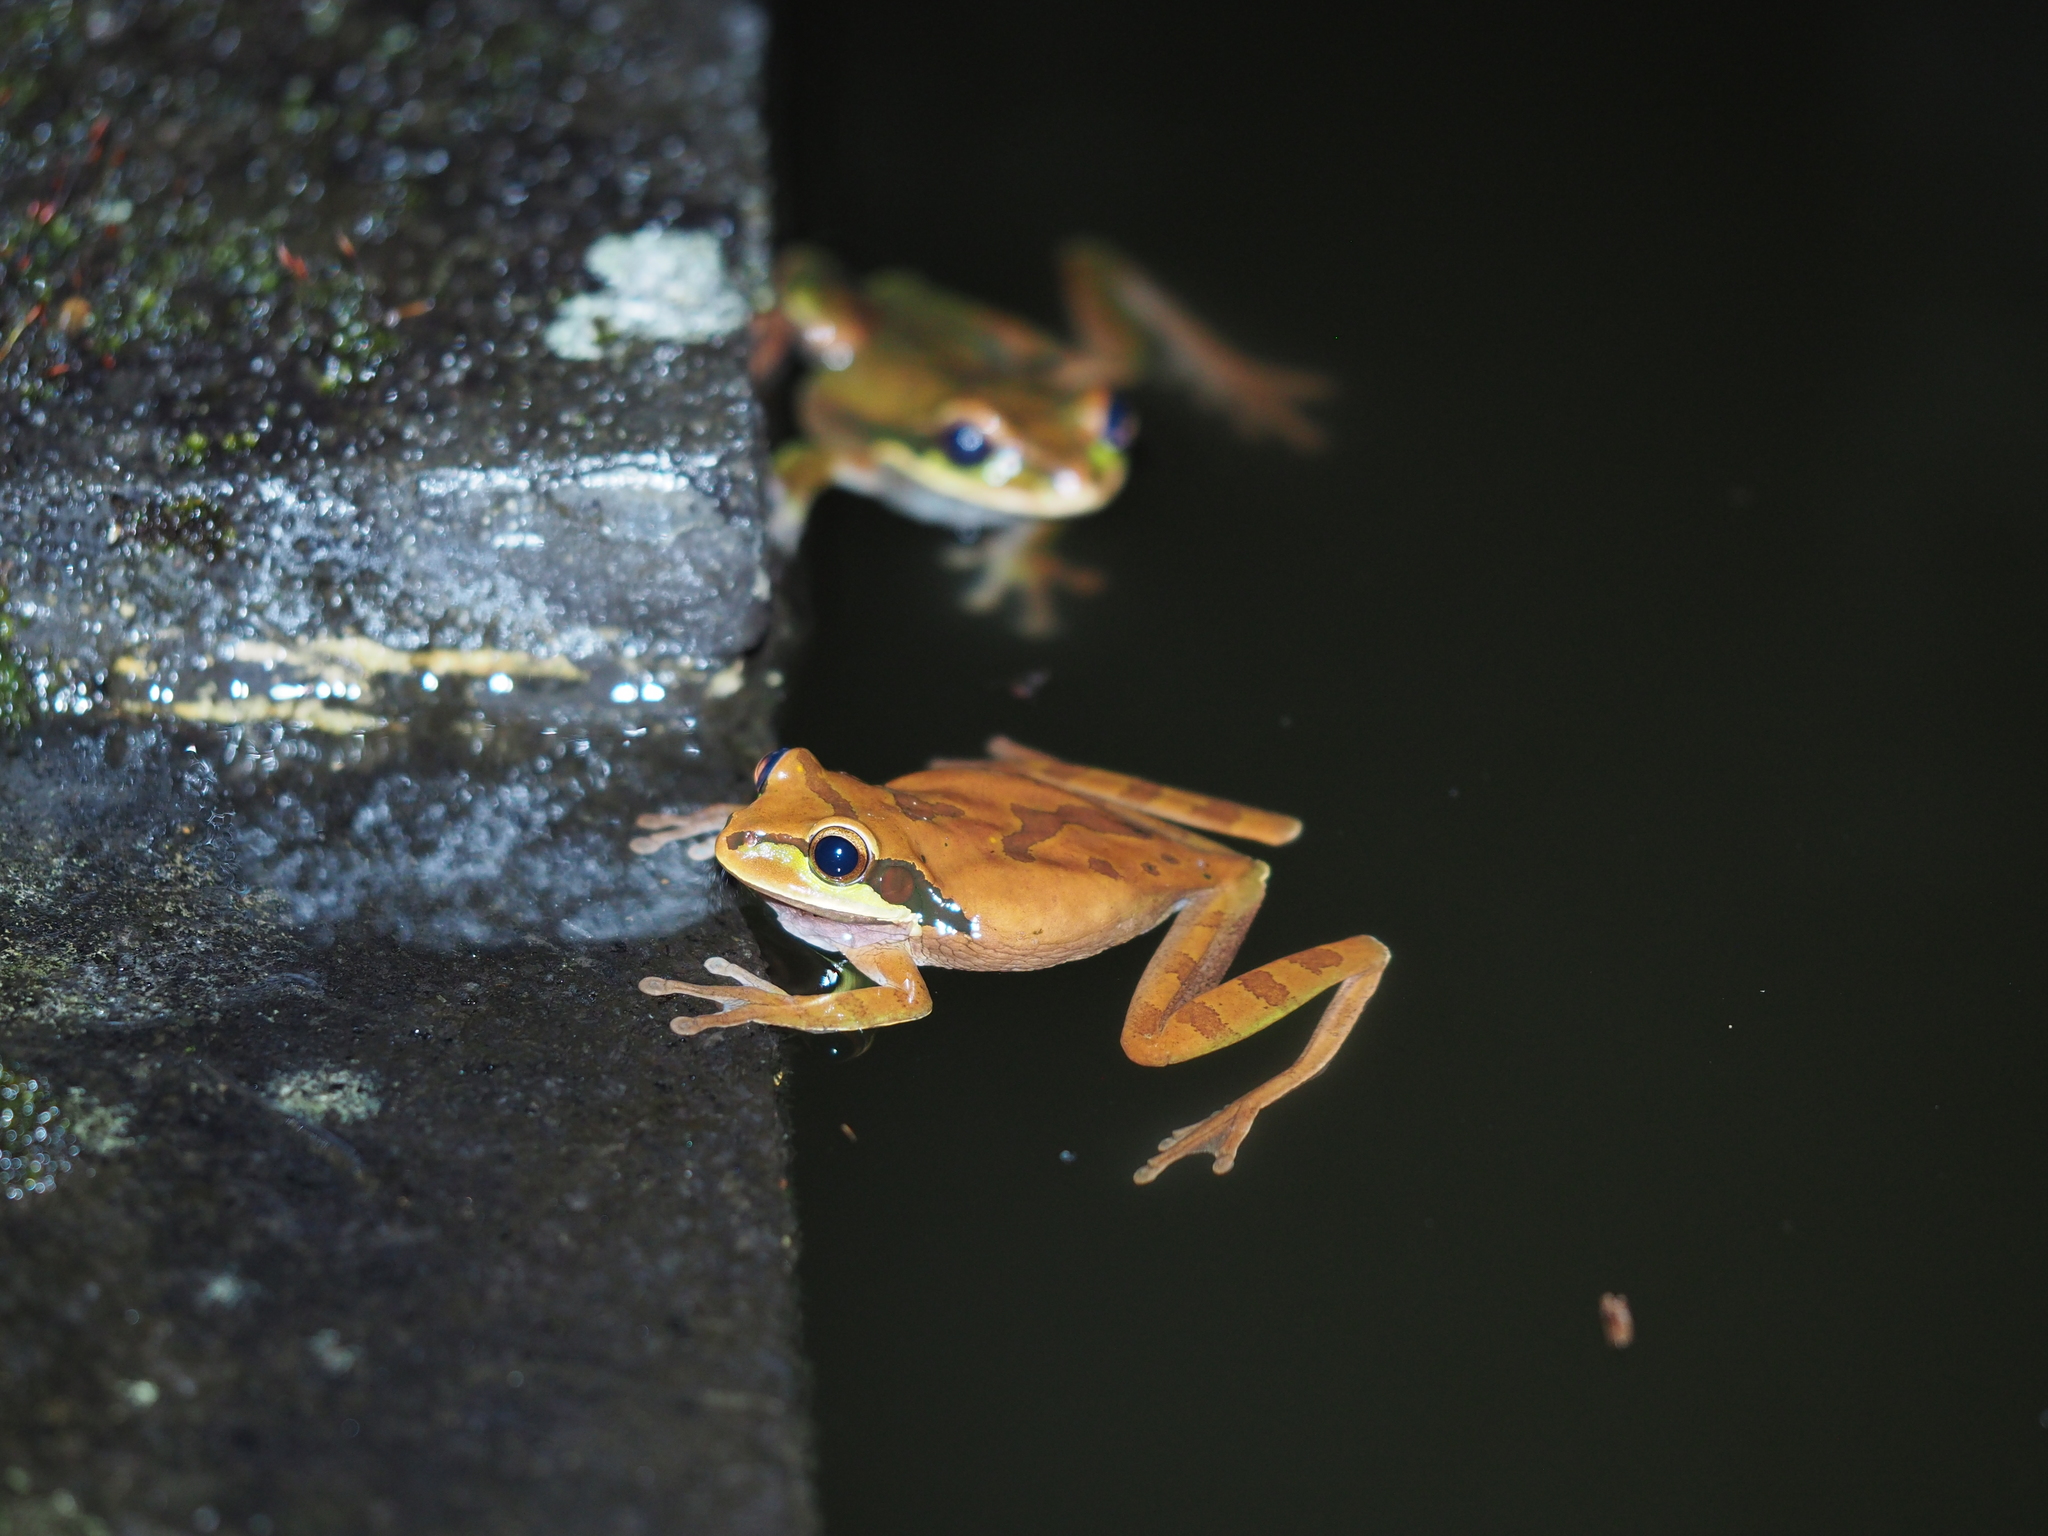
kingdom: Animalia
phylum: Chordata
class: Amphibia
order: Anura
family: Hylidae
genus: Smilisca
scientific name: Smilisca phaeota
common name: Central american smilisca
